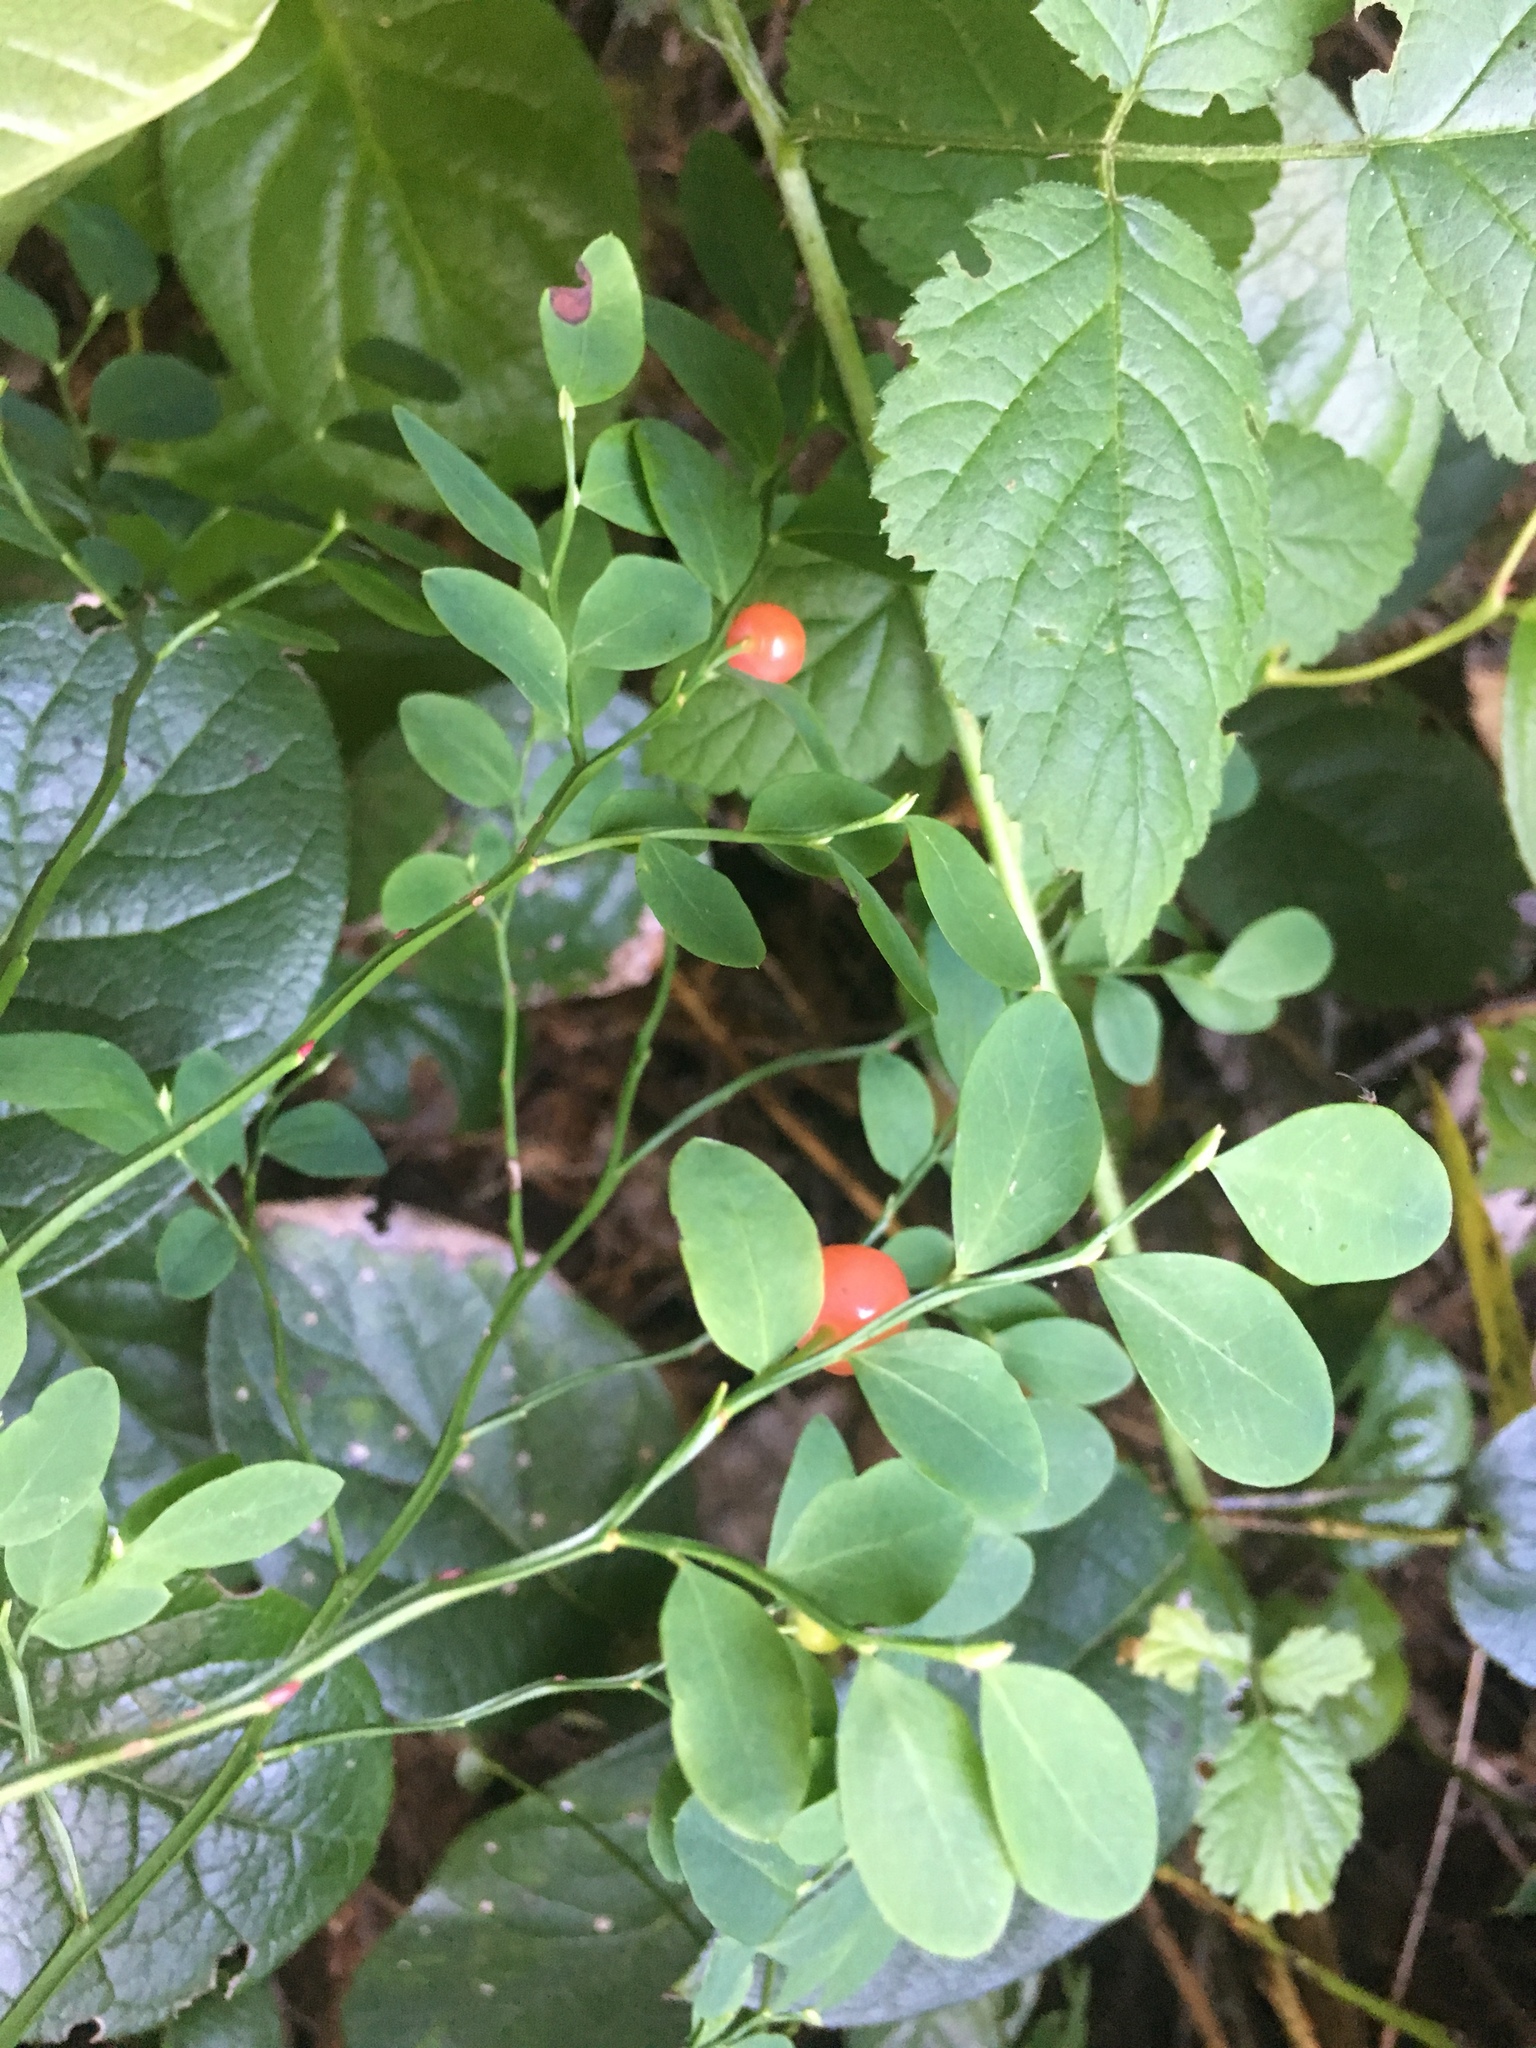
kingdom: Plantae
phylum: Tracheophyta
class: Magnoliopsida
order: Ericales
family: Ericaceae
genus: Vaccinium
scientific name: Vaccinium parvifolium
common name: Red-huckleberry
